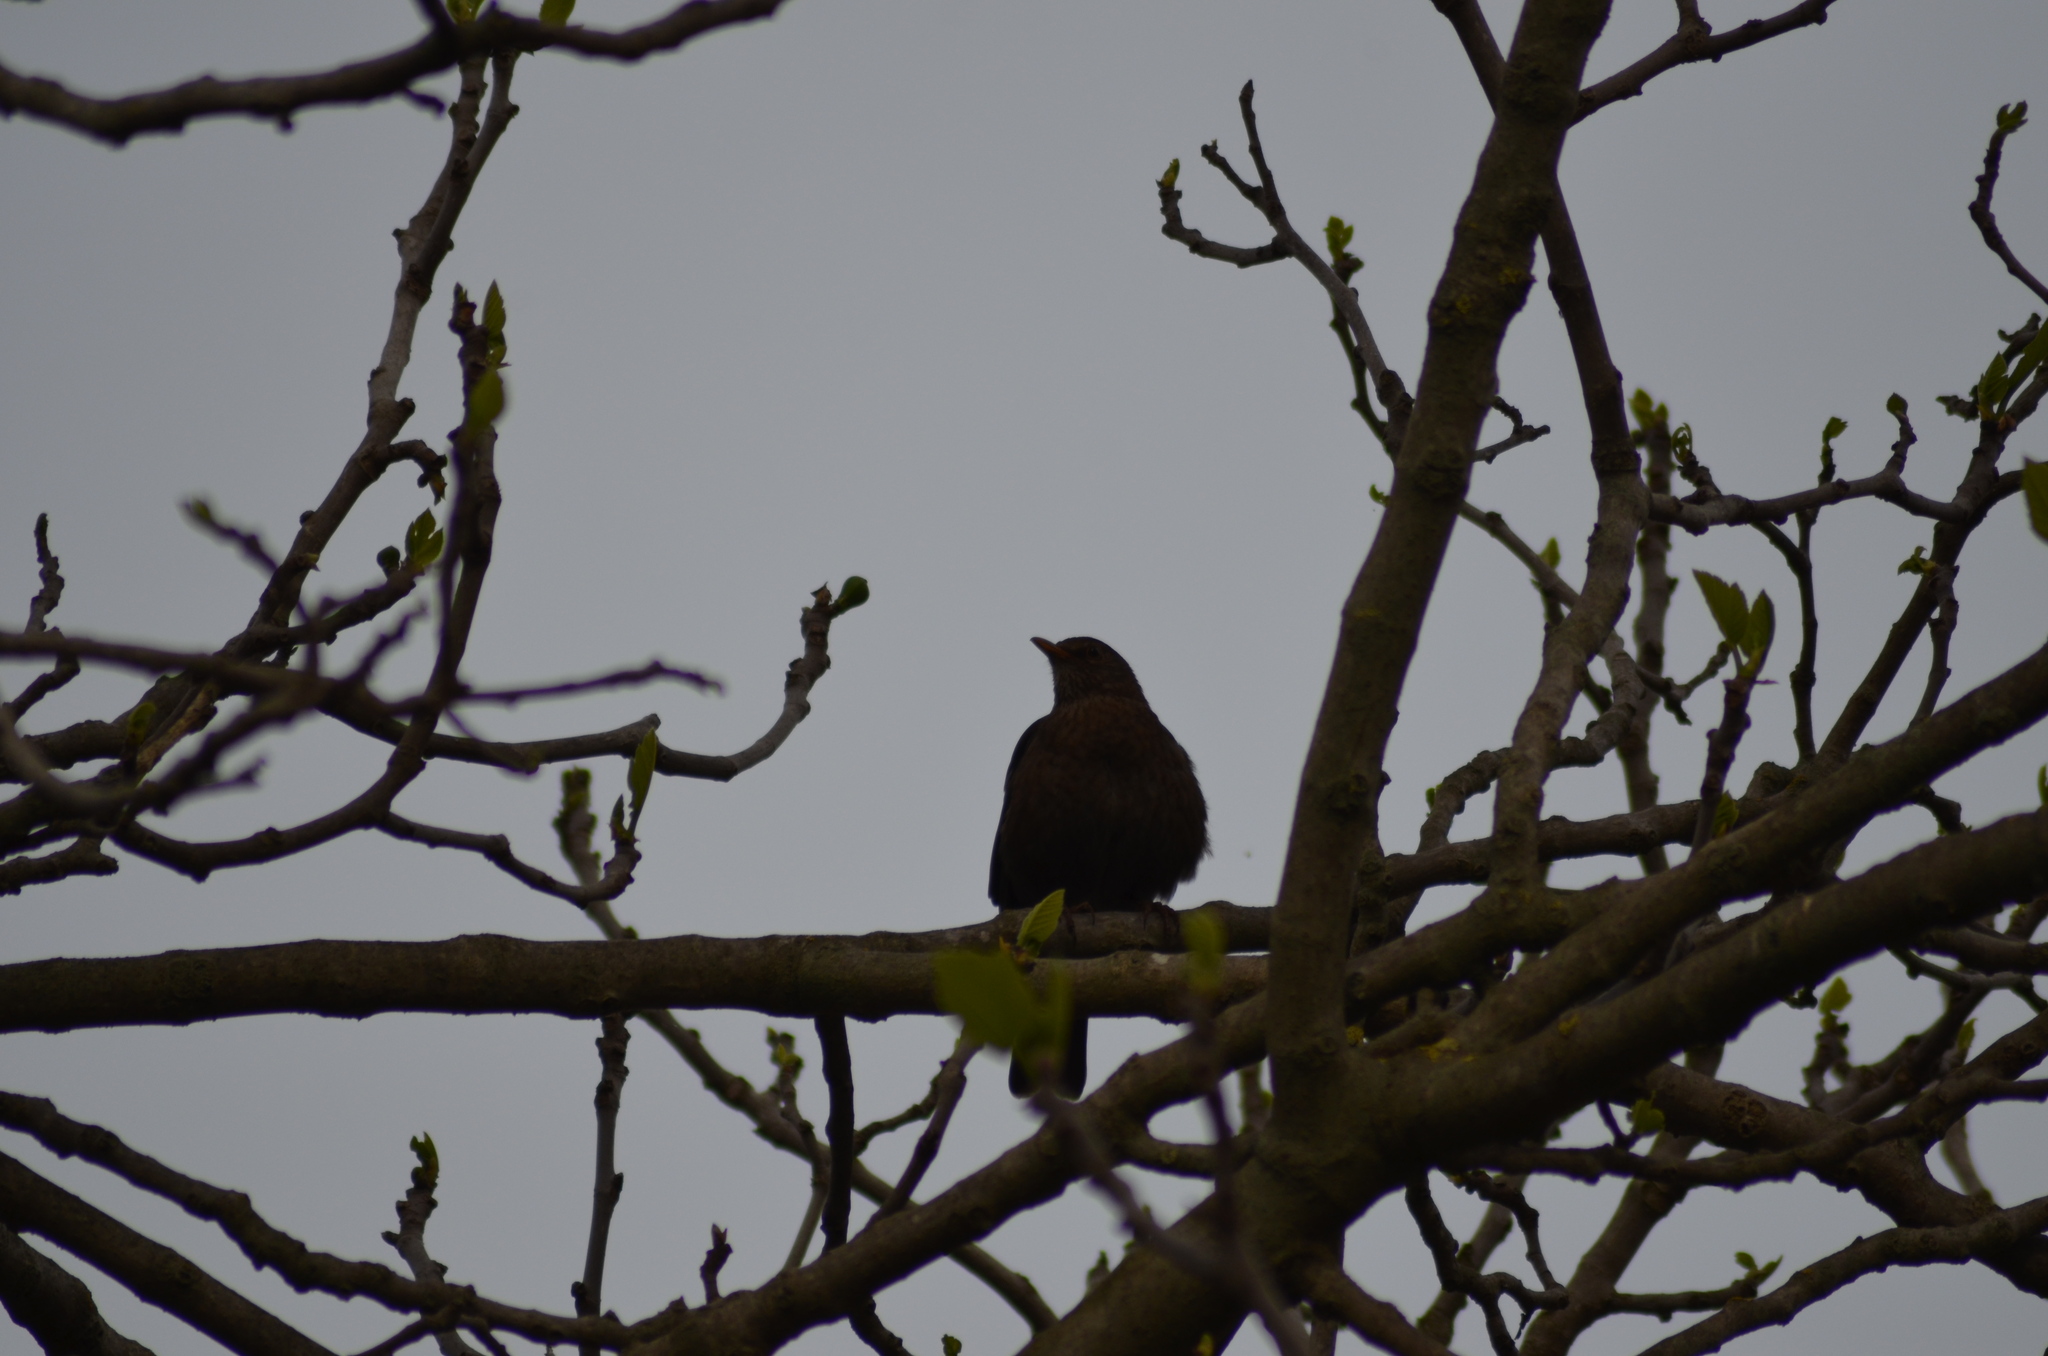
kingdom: Animalia
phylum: Chordata
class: Aves
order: Passeriformes
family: Turdidae
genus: Turdus
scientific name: Turdus merula
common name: Common blackbird
